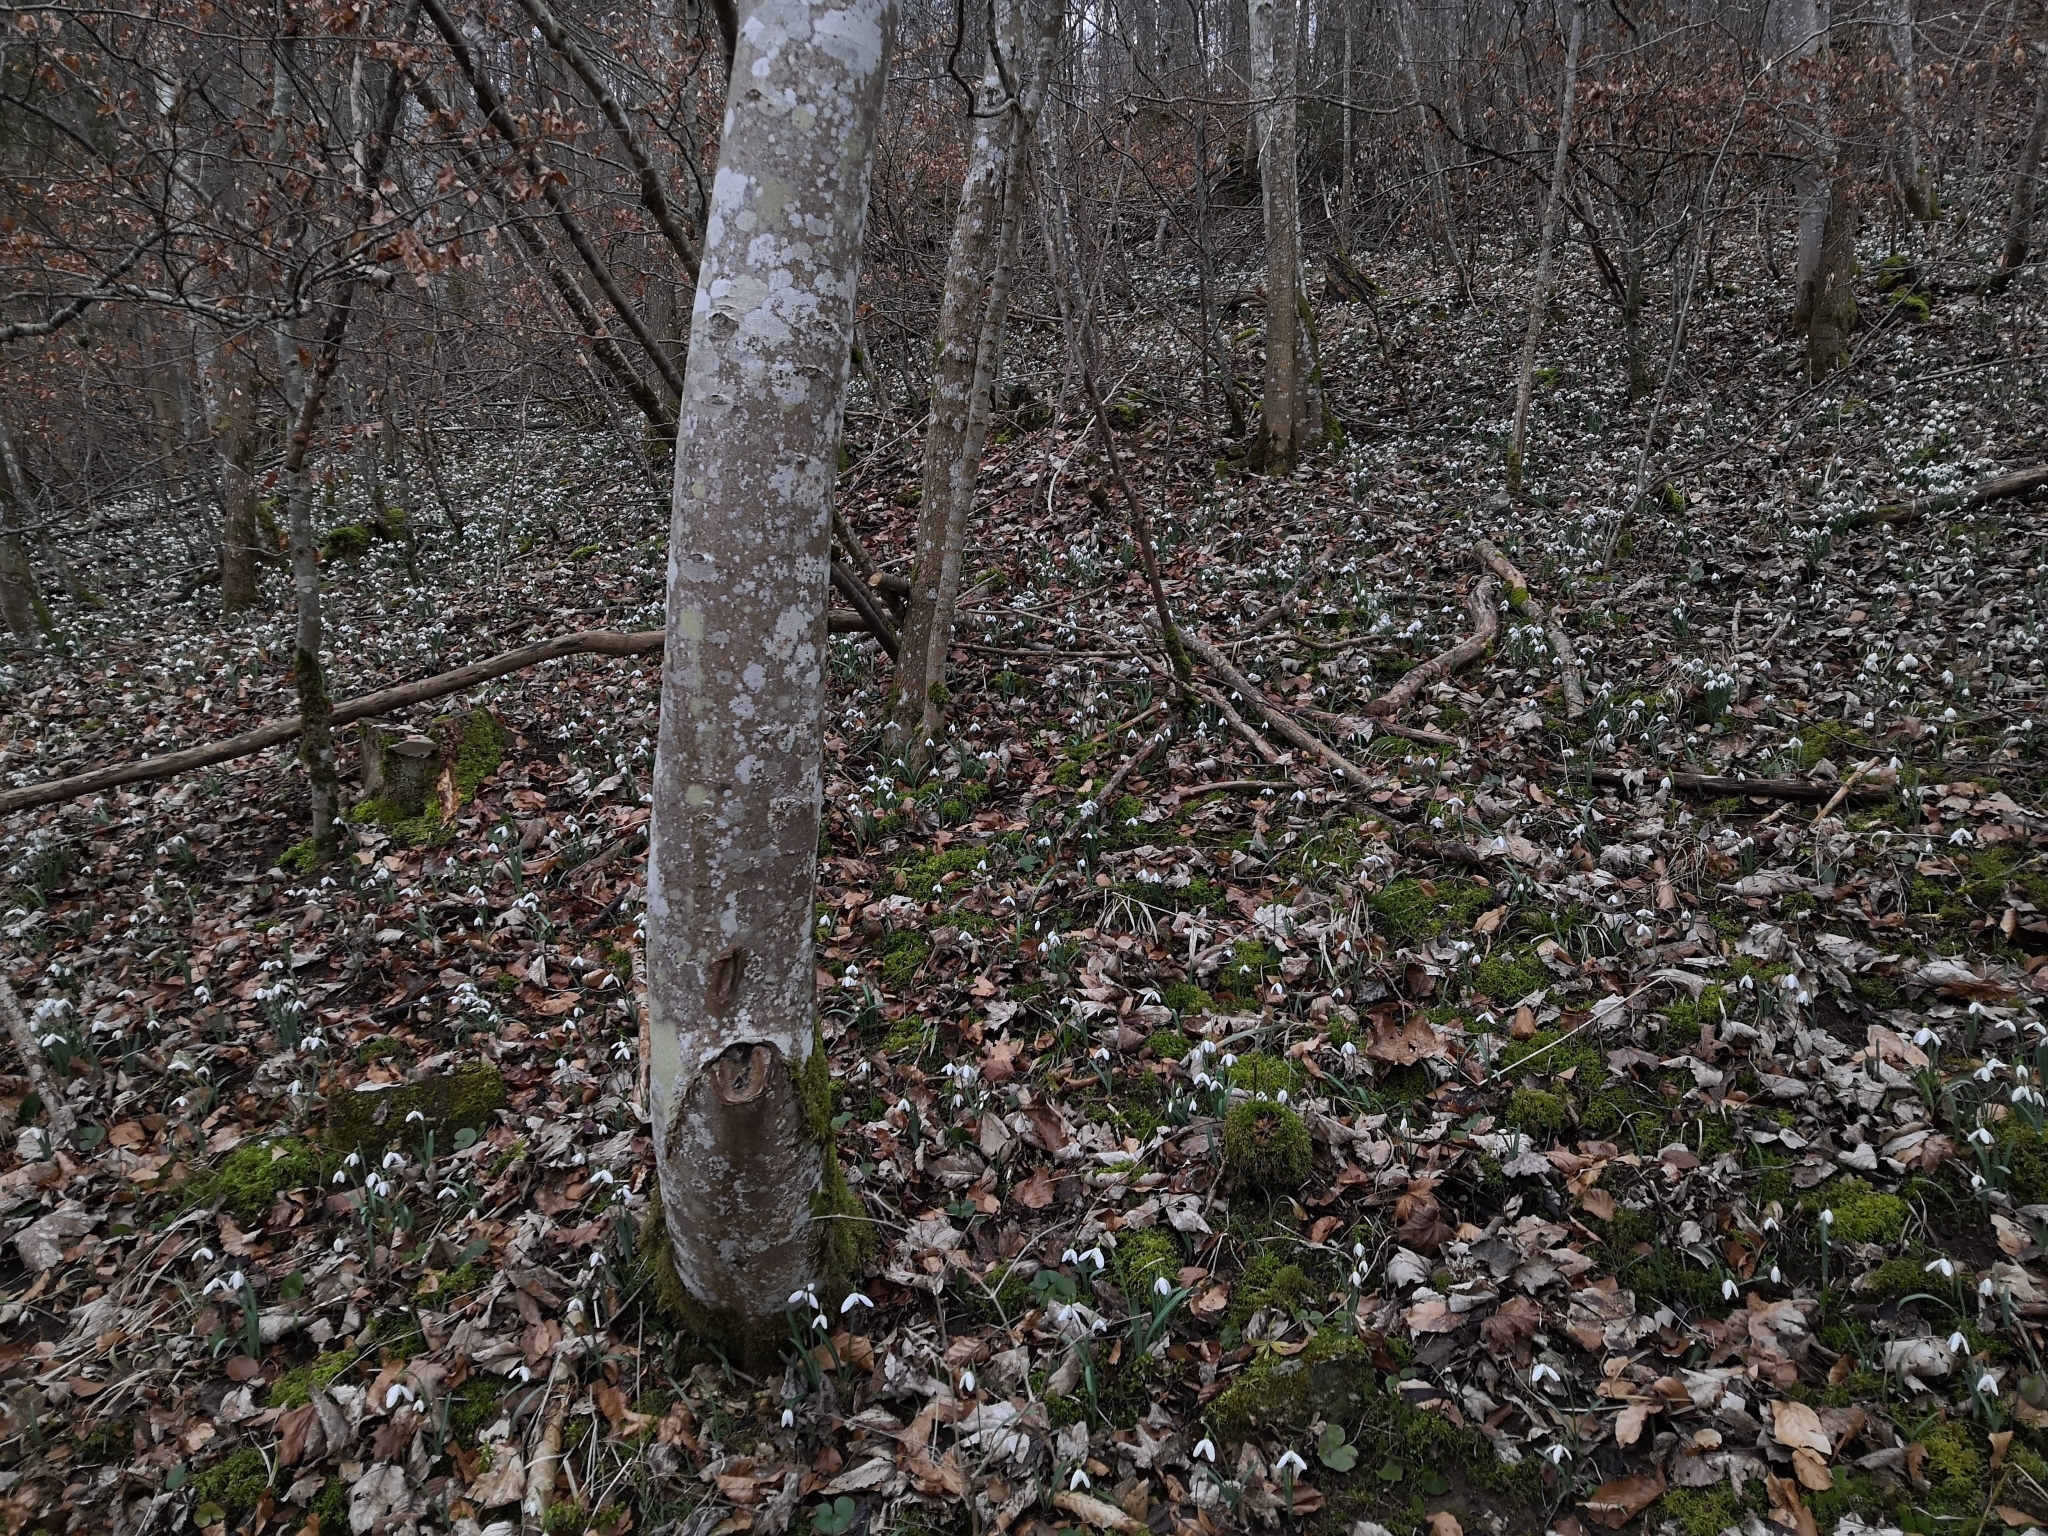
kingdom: Plantae
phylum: Tracheophyta
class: Liliopsida
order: Asparagales
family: Amaryllidaceae
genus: Galanthus
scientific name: Galanthus nivalis
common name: Snowdrop
